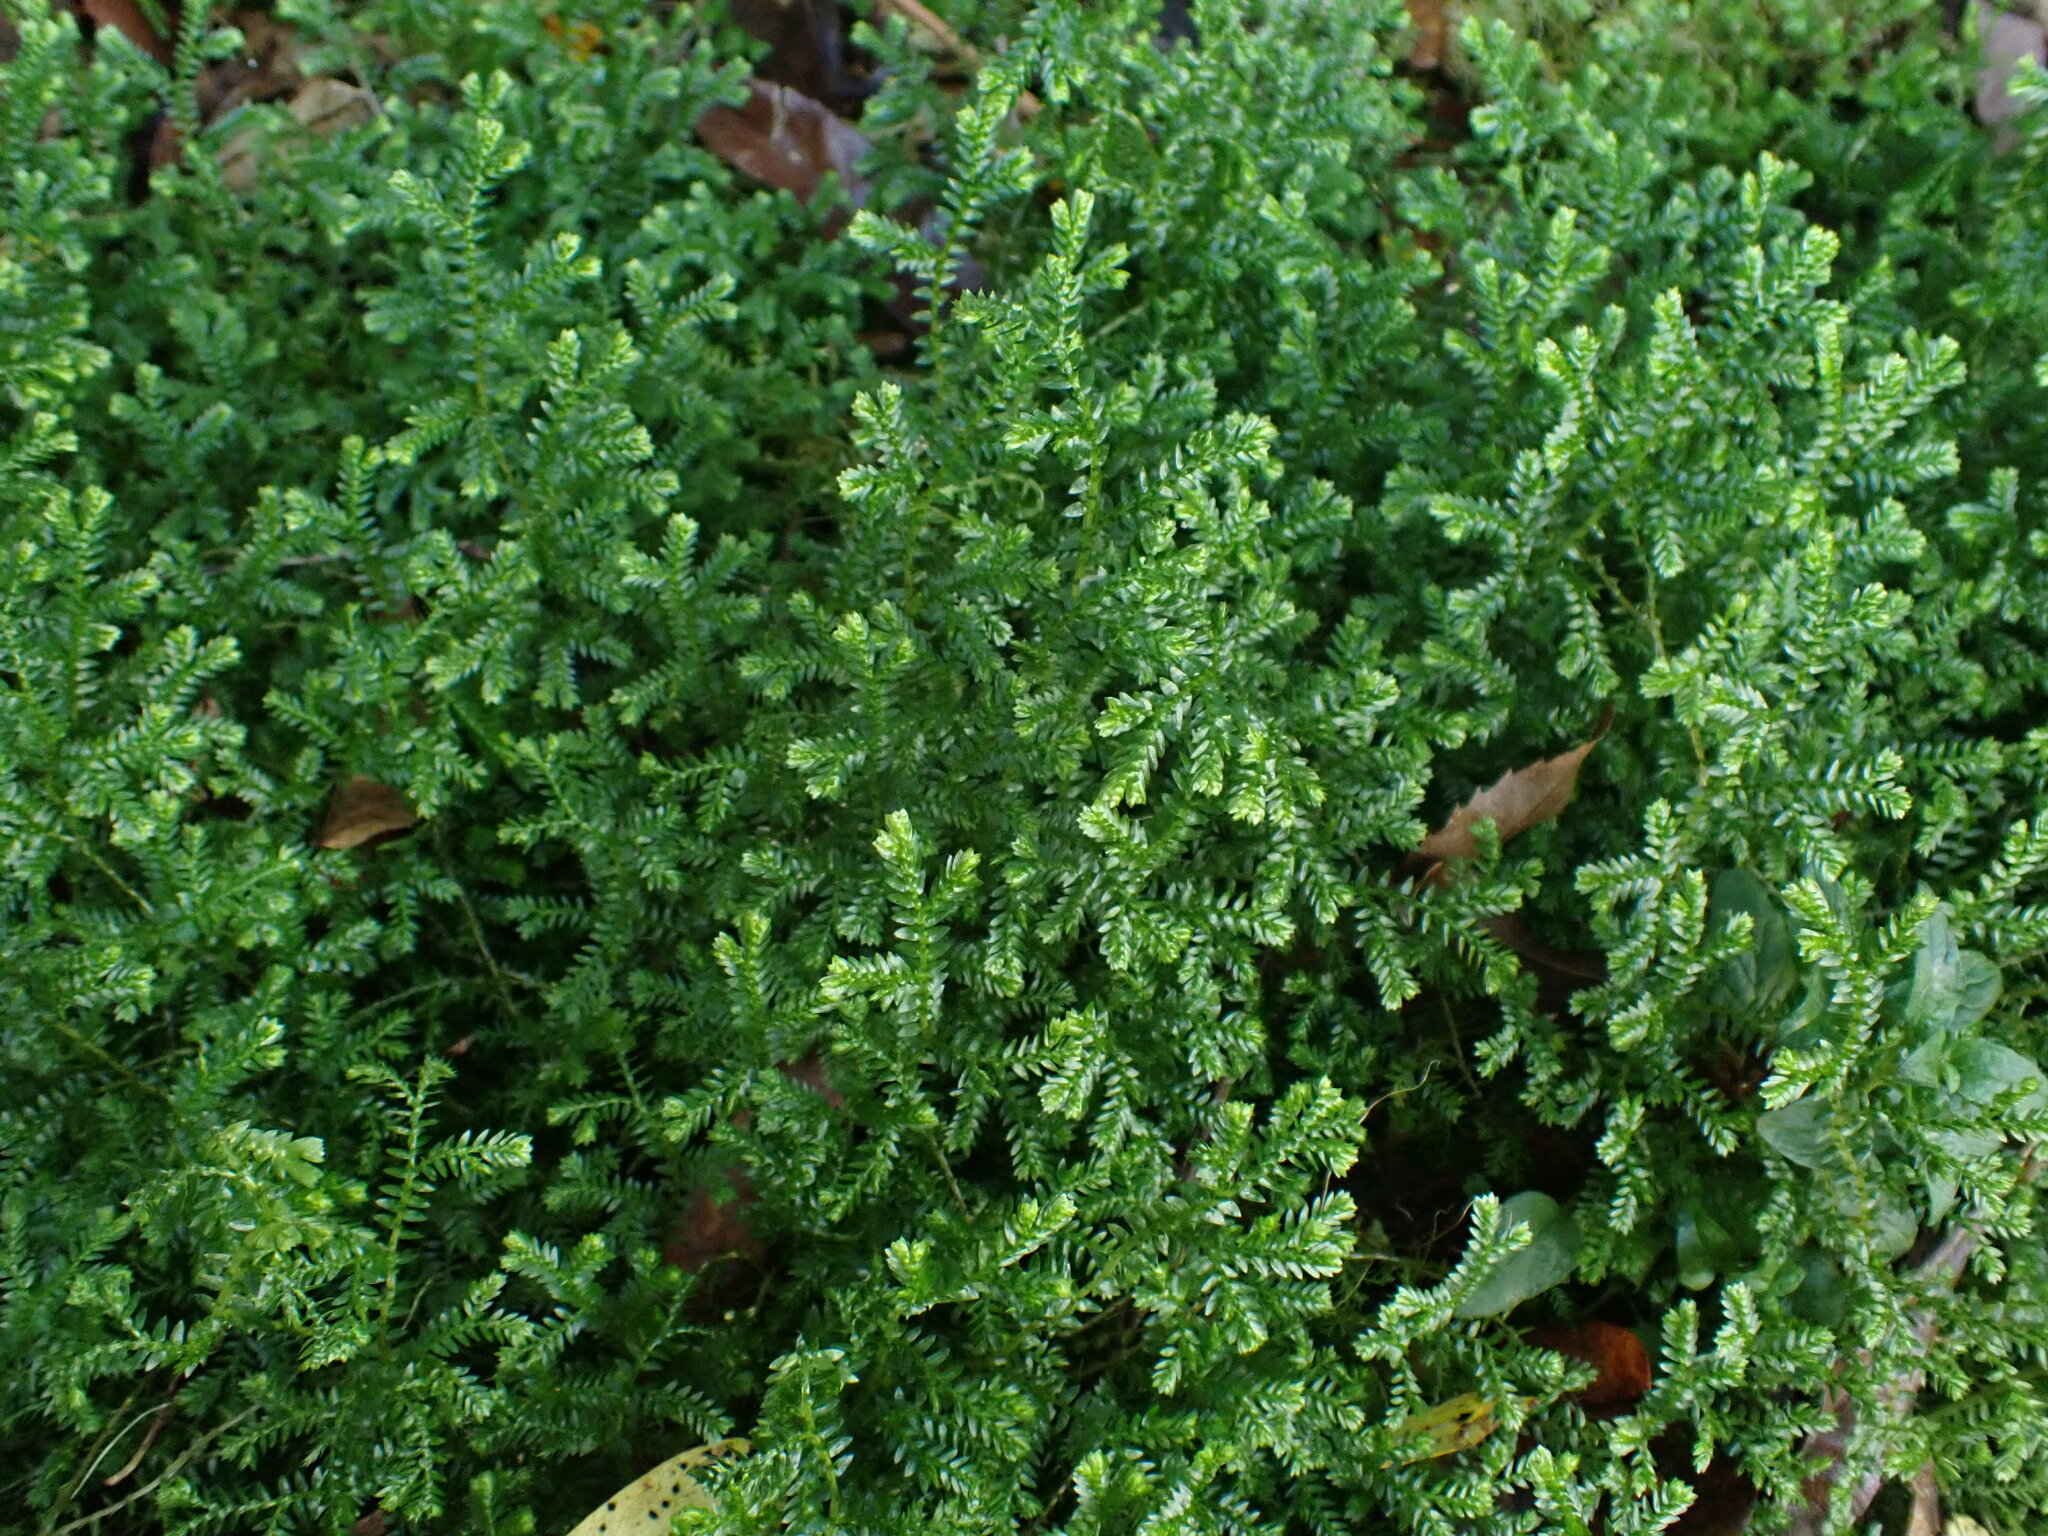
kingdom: Plantae
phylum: Tracheophyta
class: Lycopodiopsida
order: Selaginellales
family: Selaginellaceae
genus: Selaginella
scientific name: Selaginella kraussiana
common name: Krauss' spikemoss
